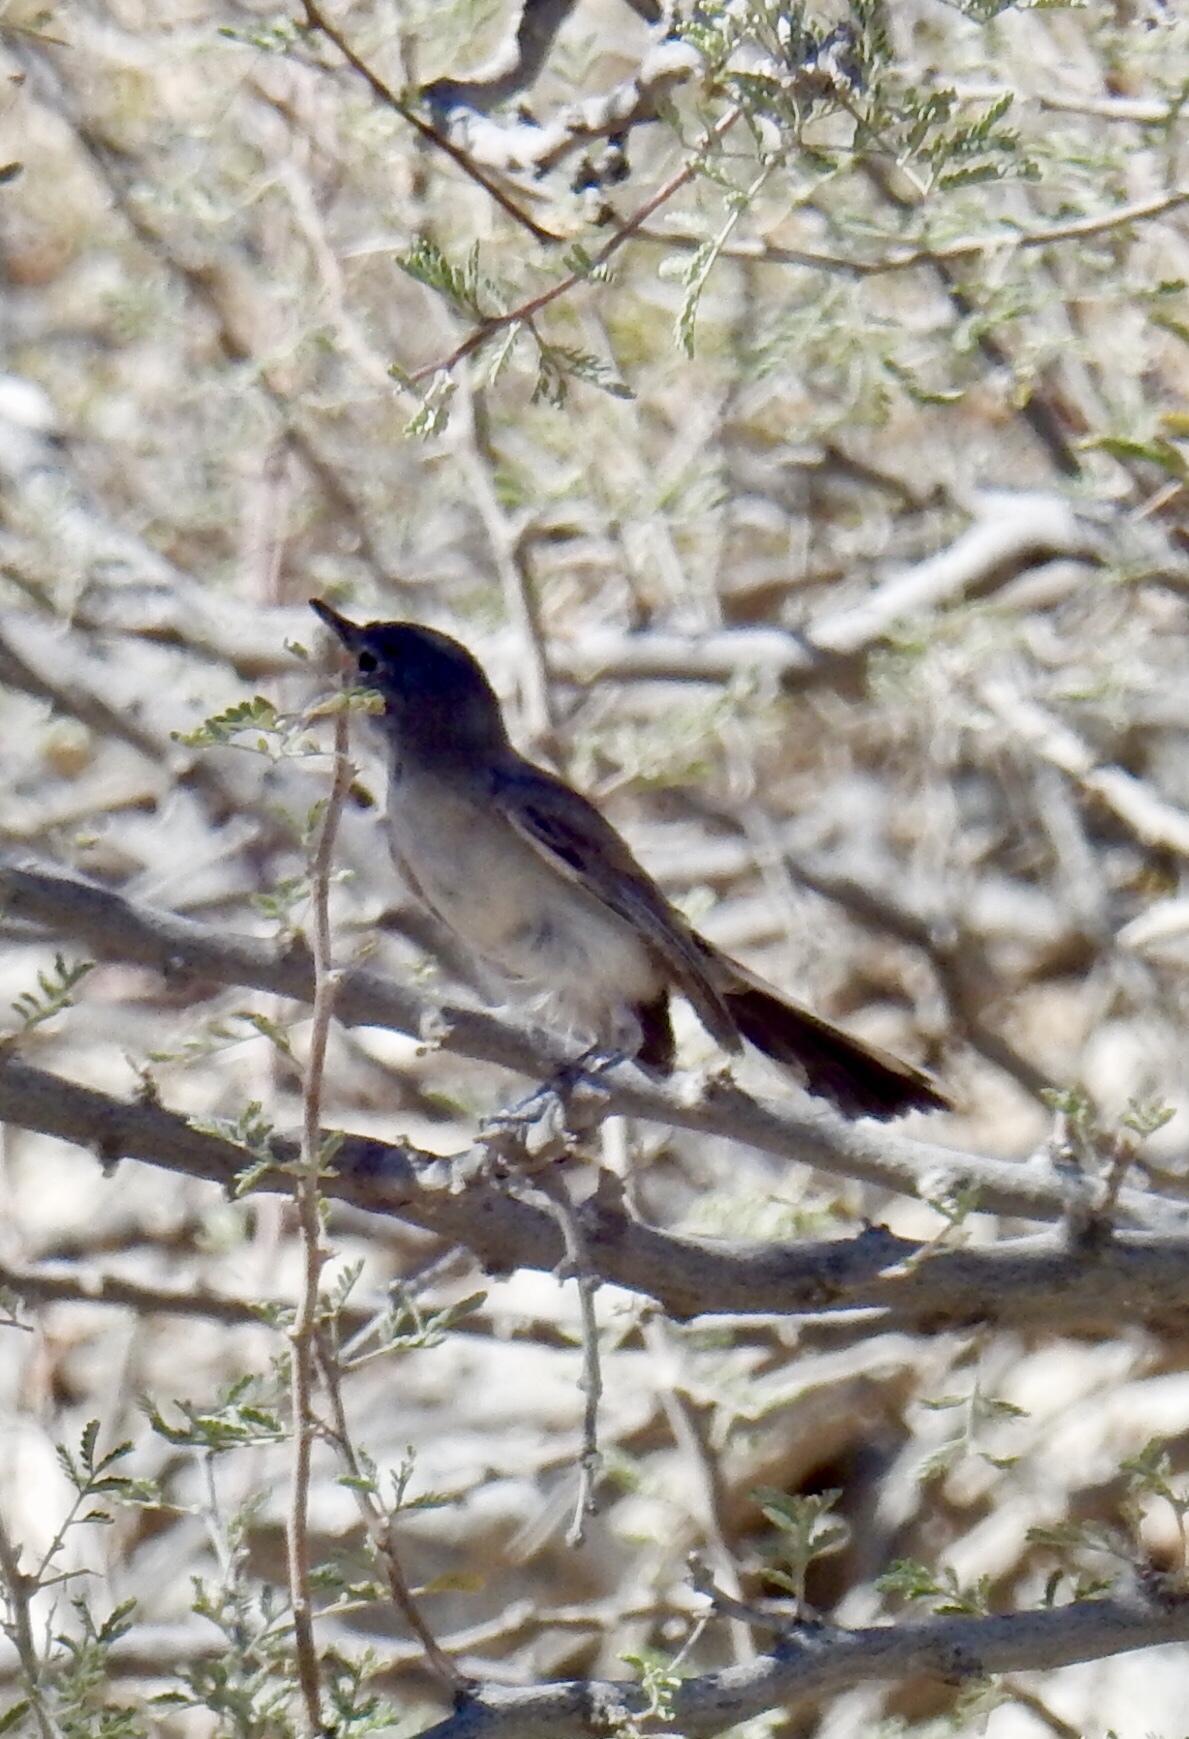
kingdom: Animalia
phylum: Chordata
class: Aves
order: Passeriformes
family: Polioptilidae
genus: Polioptila
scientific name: Polioptila melanura
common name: Black-tailed gnatcatcher
